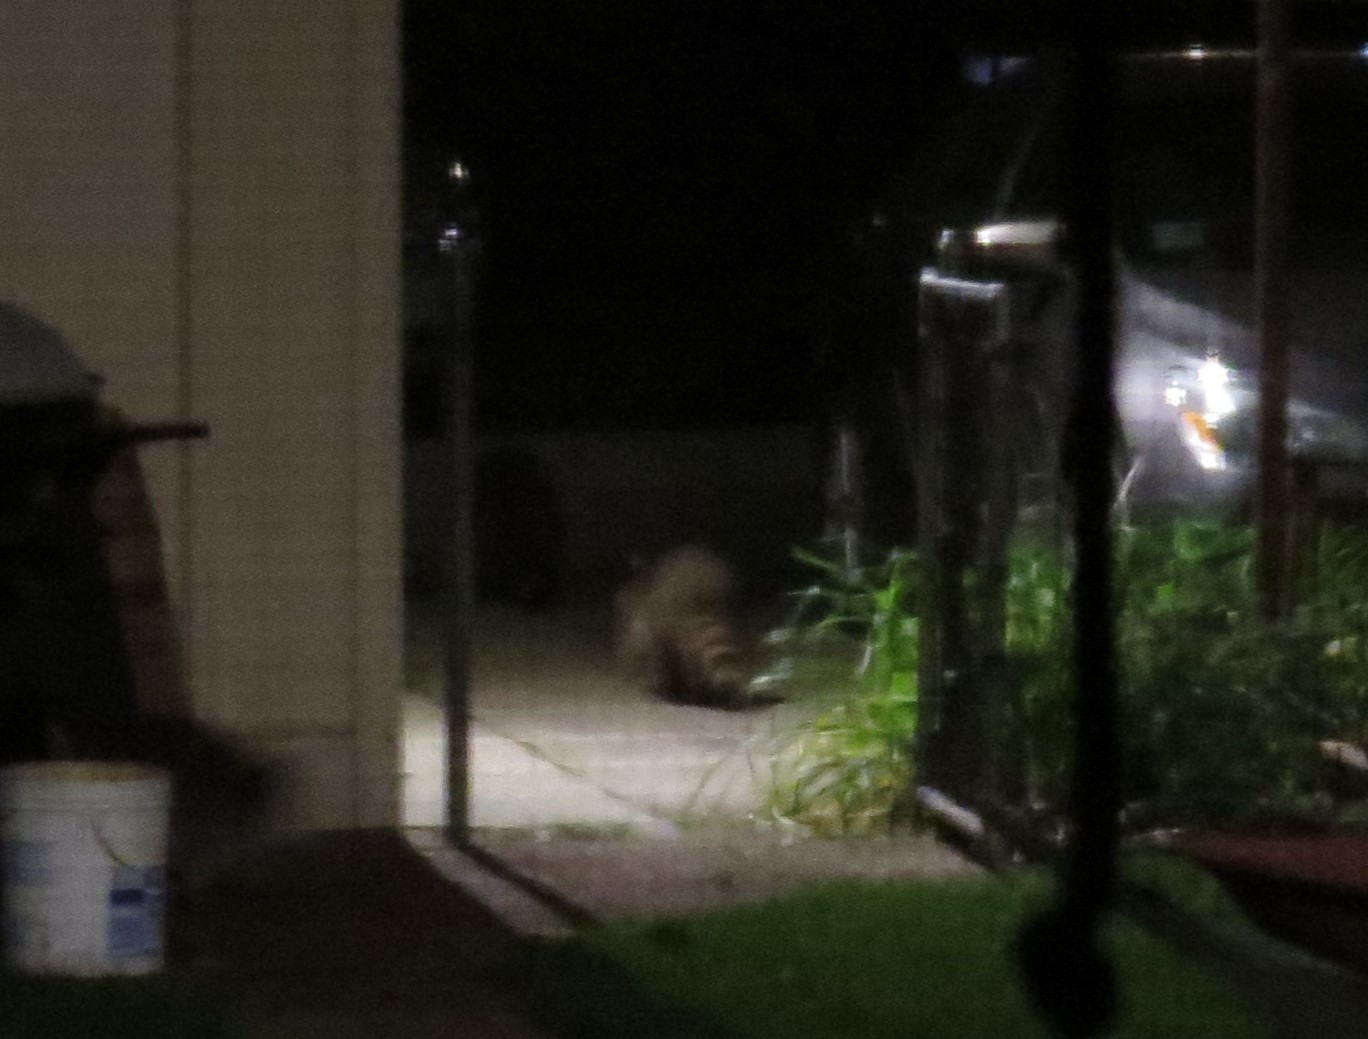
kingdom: Animalia
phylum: Chordata
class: Mammalia
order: Carnivora
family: Procyonidae
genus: Procyon
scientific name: Procyon lotor
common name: Raccoon
